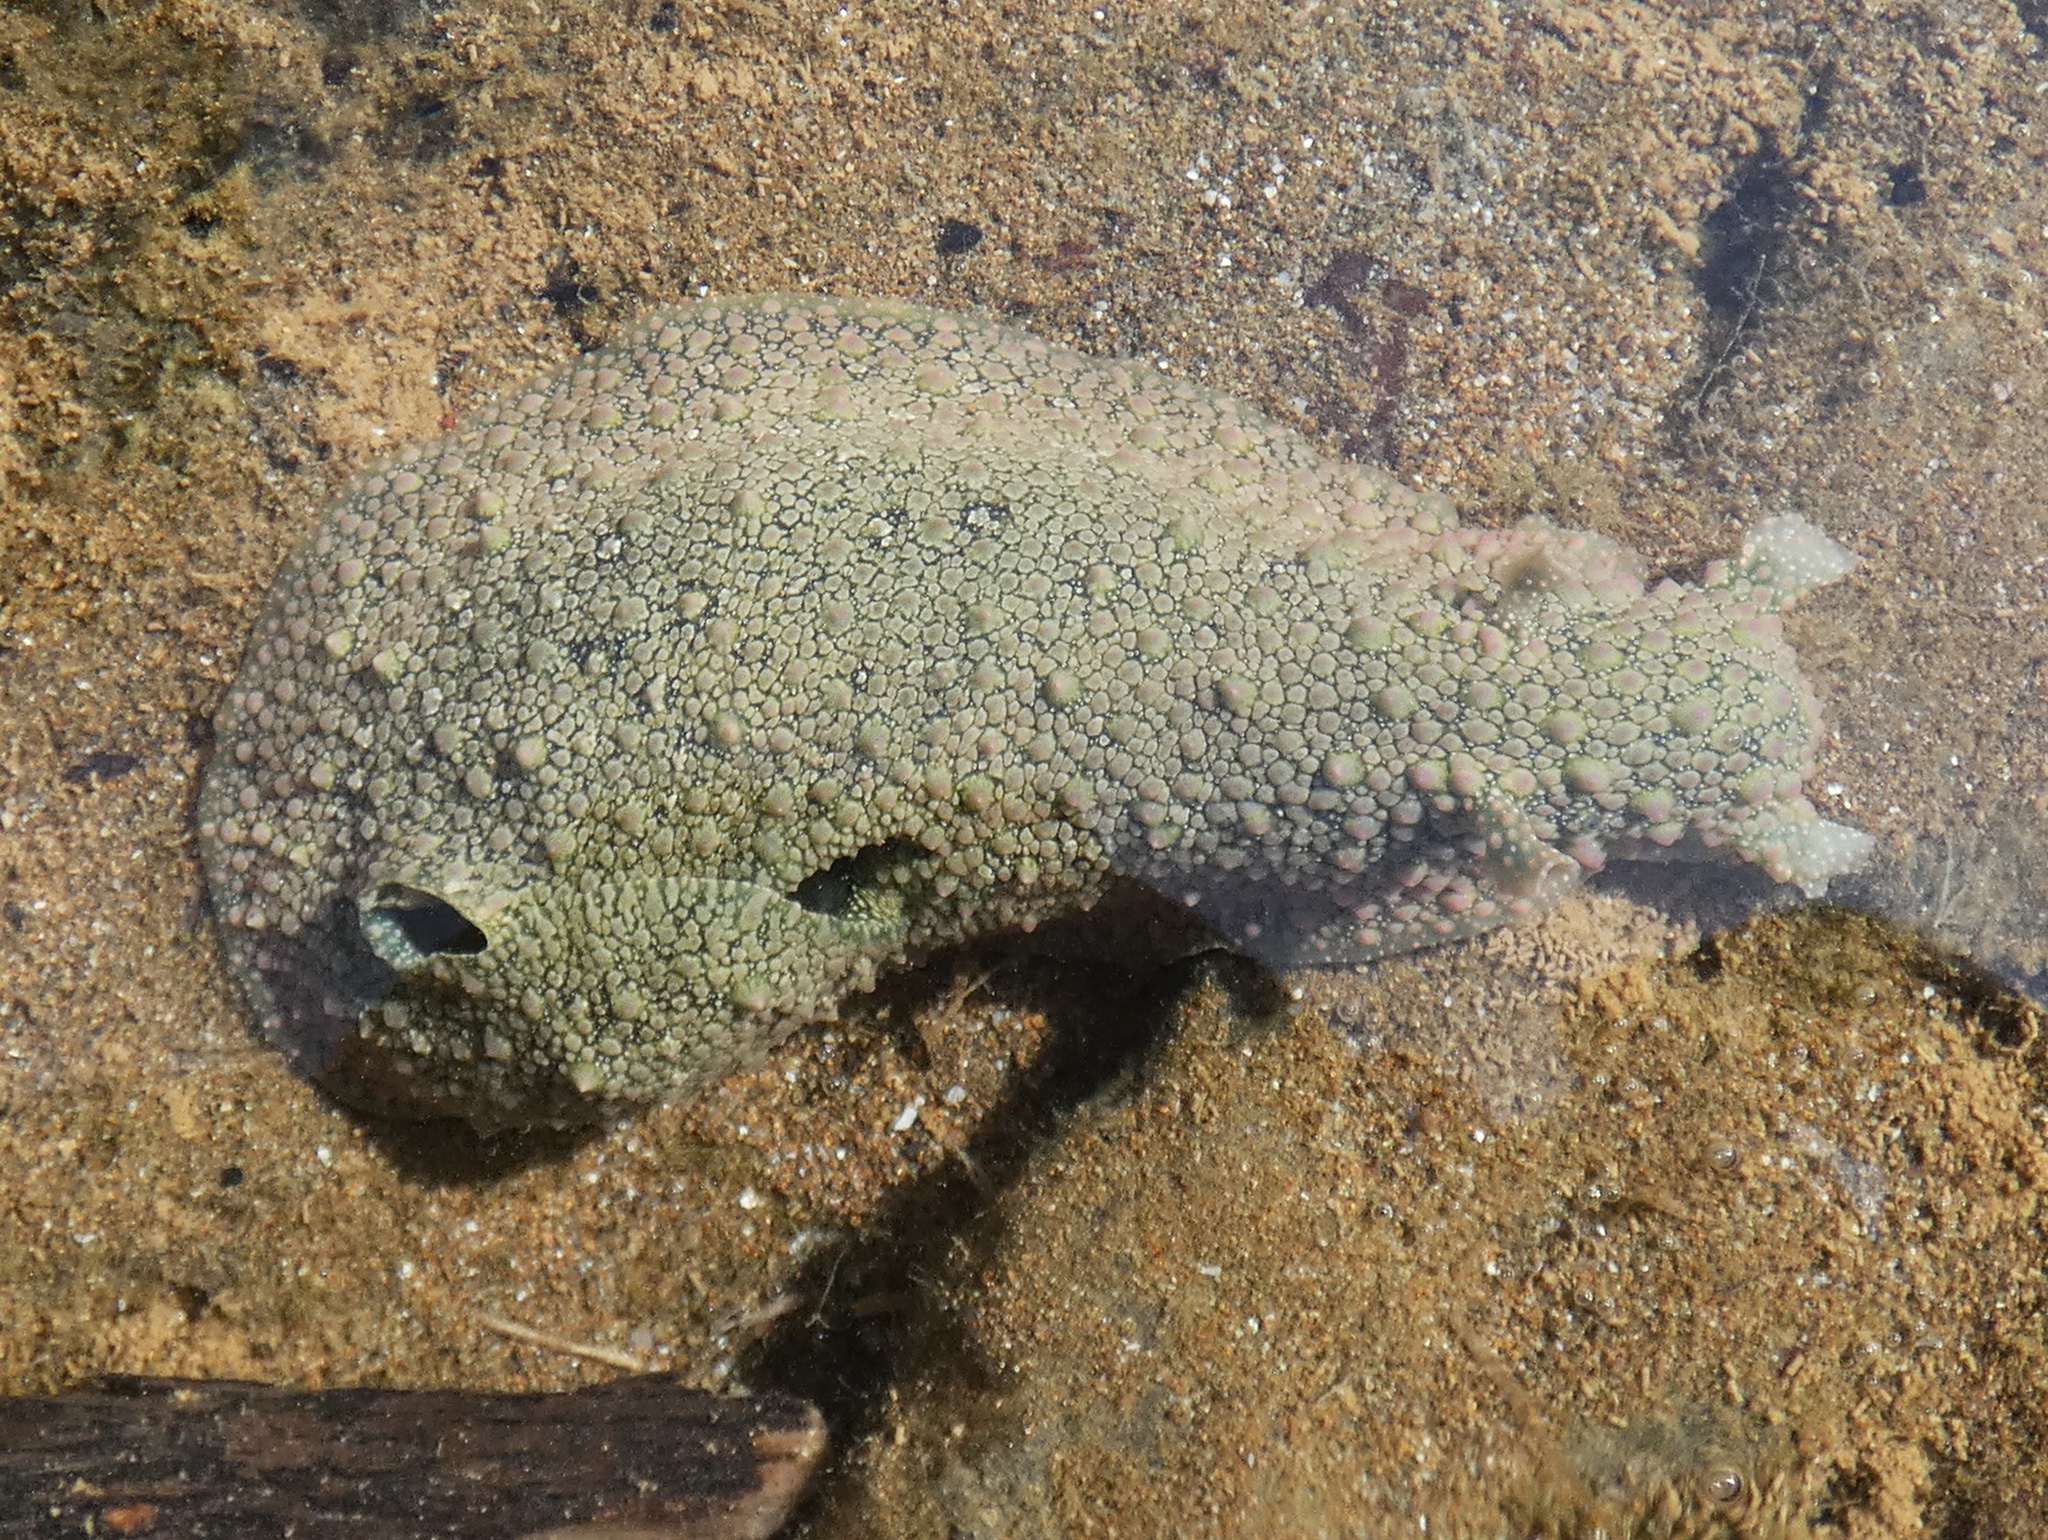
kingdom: Animalia
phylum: Mollusca
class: Gastropoda
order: Aplysiida
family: Aplysiidae
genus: Dolabrifera
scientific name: Dolabrifera nicaraguana
